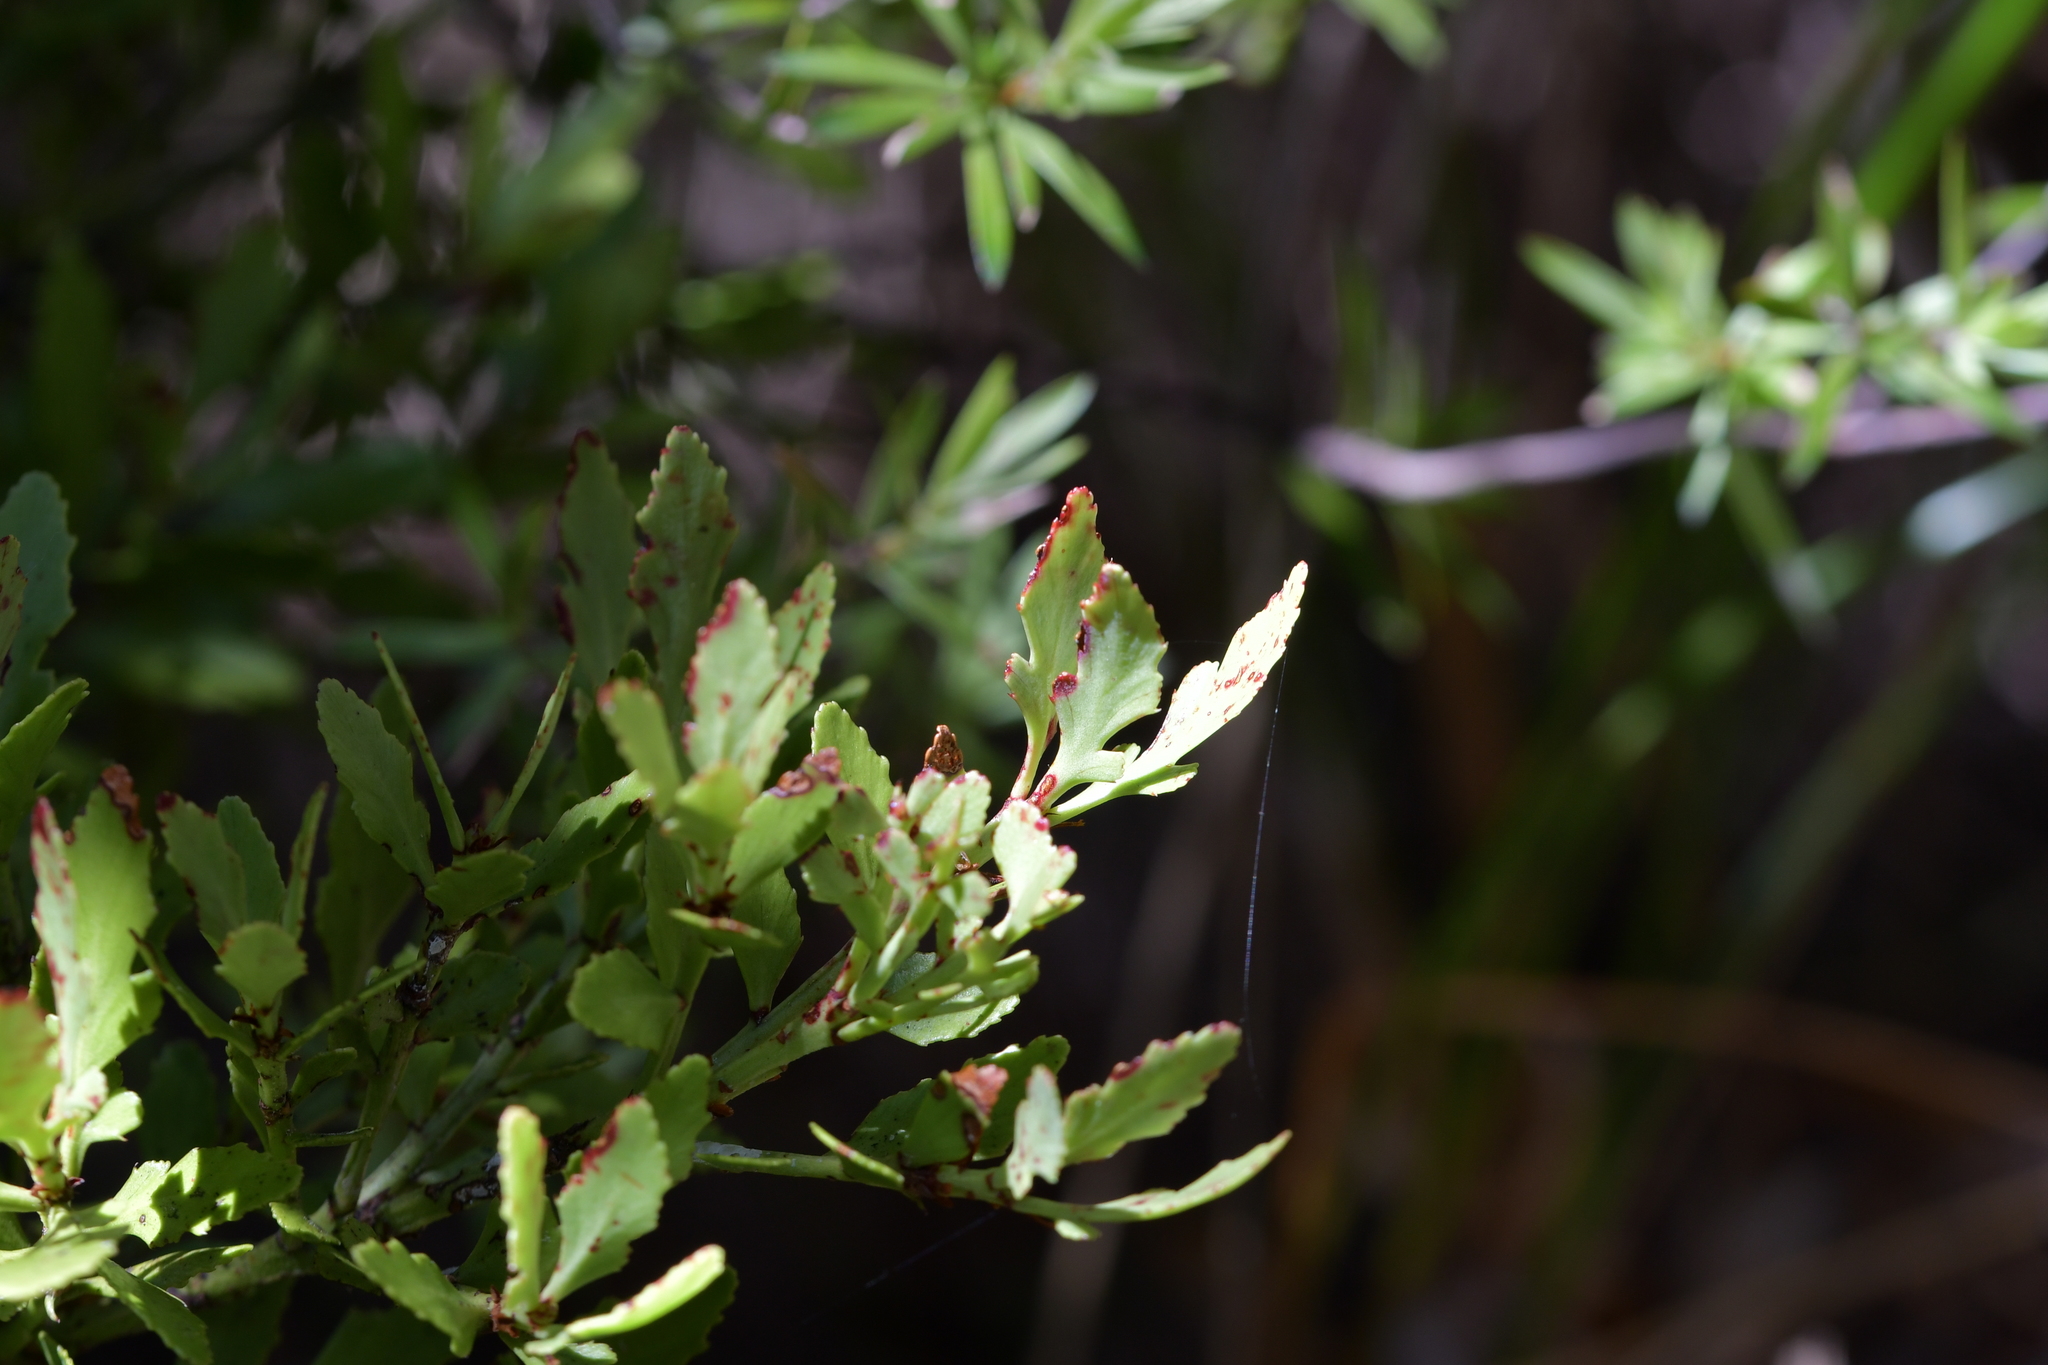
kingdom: Plantae
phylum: Tracheophyta
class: Pinopsida
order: Pinales
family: Phyllocladaceae
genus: Phyllocladus
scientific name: Phyllocladus trichomanoides
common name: Celery pine
